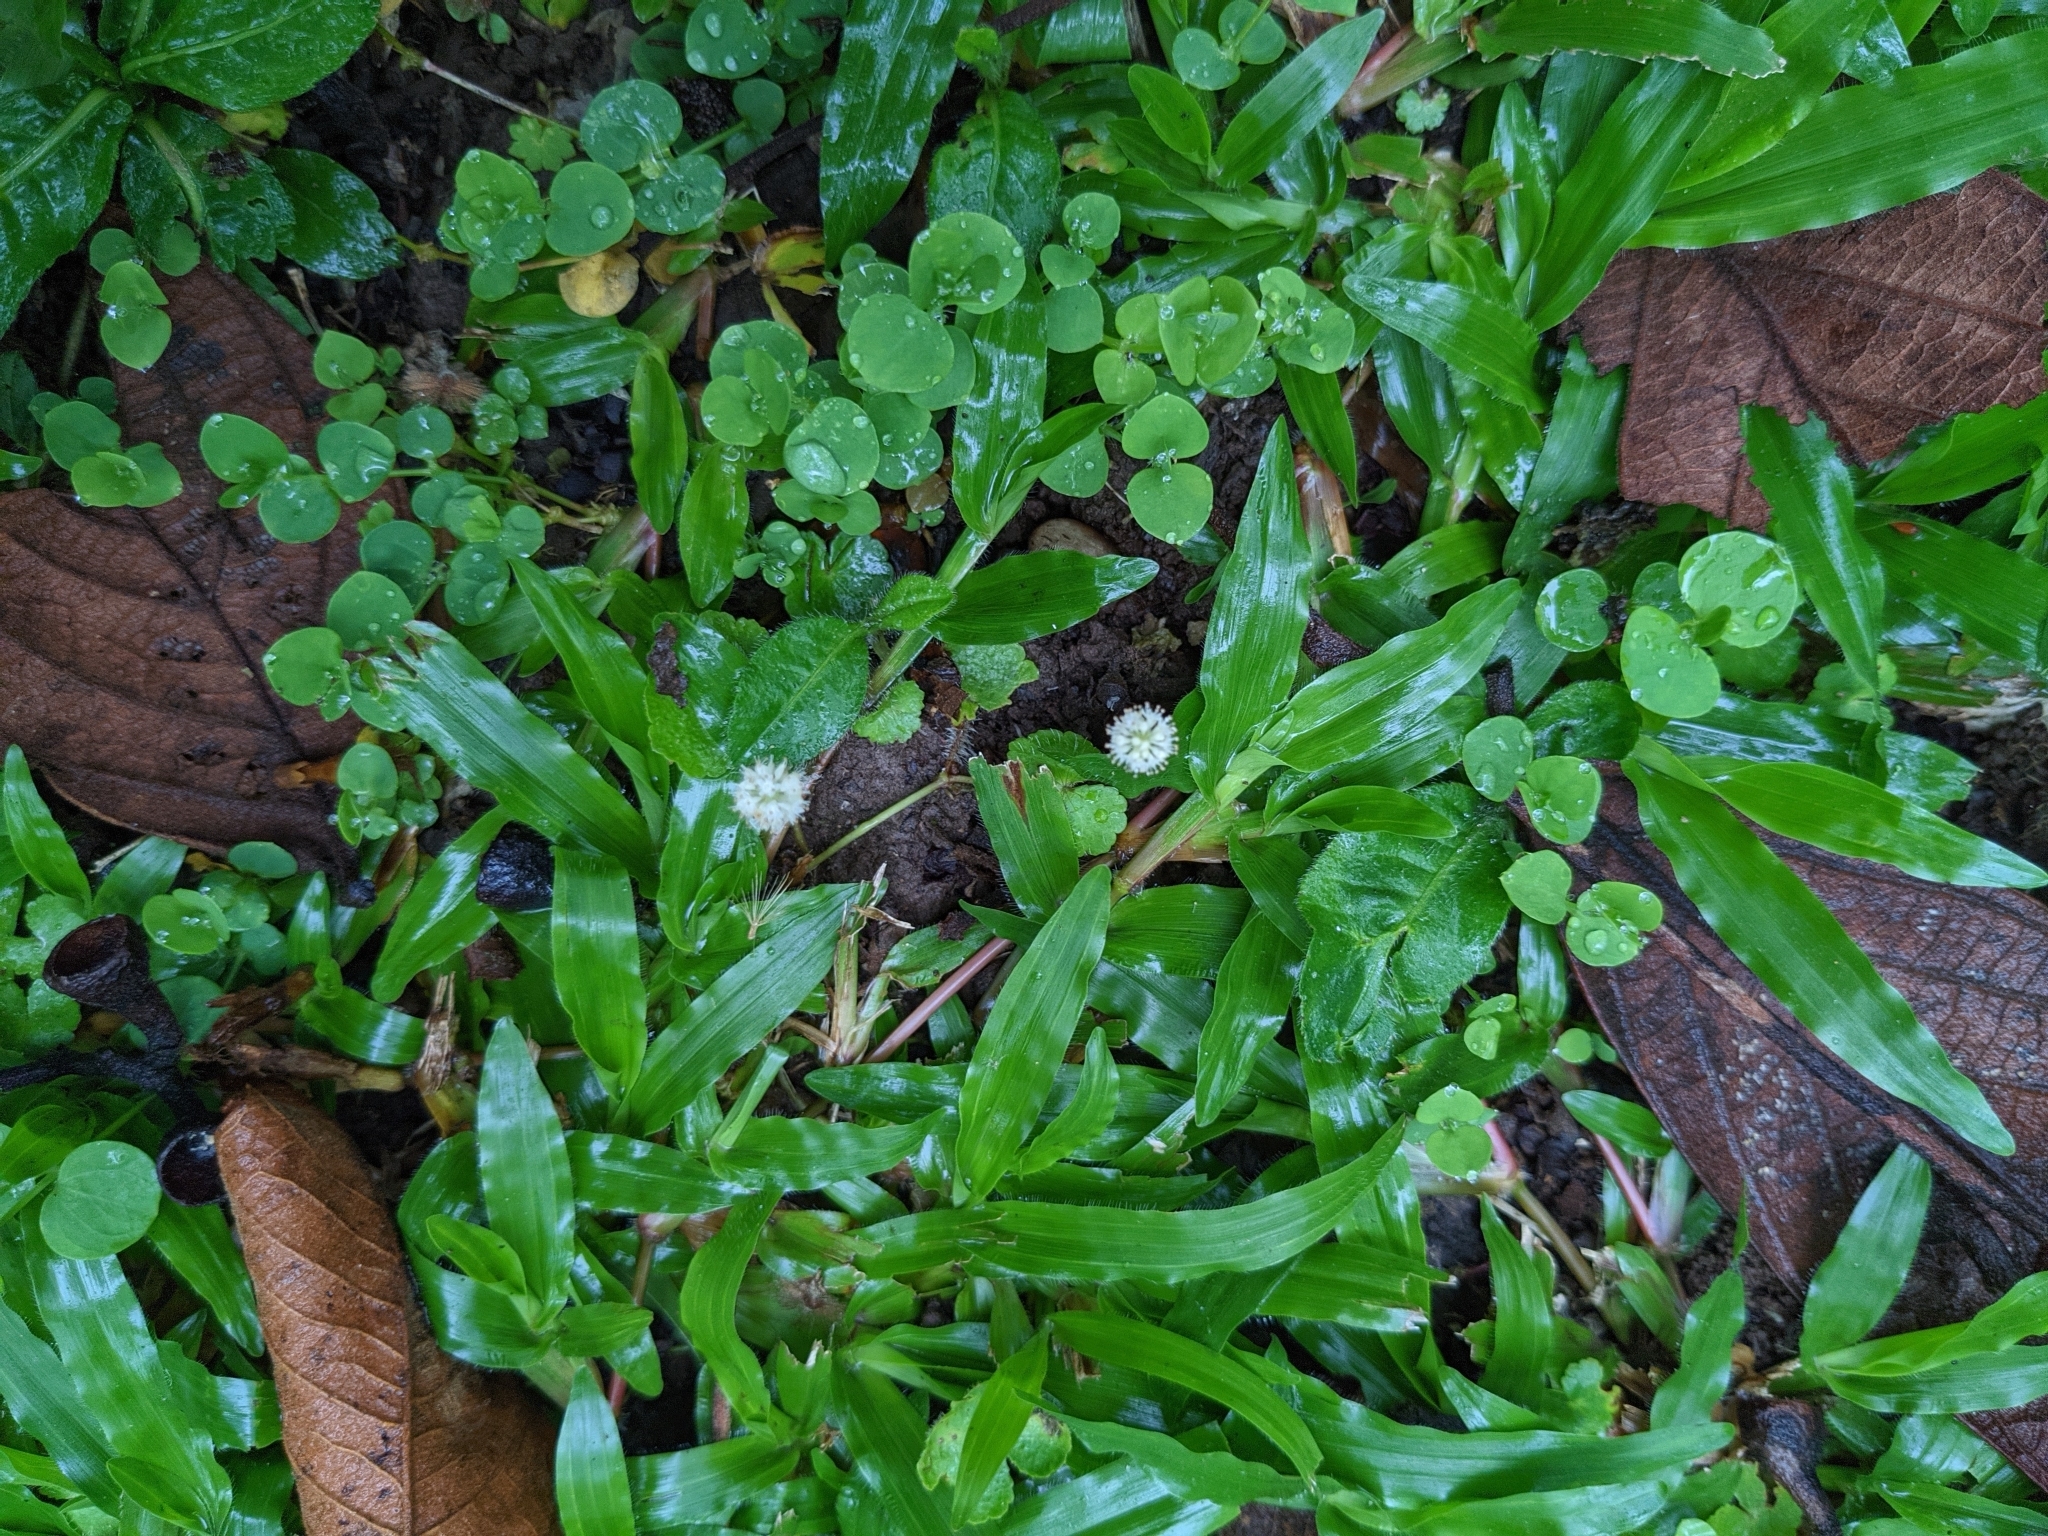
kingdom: Plantae
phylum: Tracheophyta
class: Magnoliopsida
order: Apiales
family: Araliaceae
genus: Hydrocotyle
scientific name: Hydrocotyle leucocephala
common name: Brazilian pennywort
